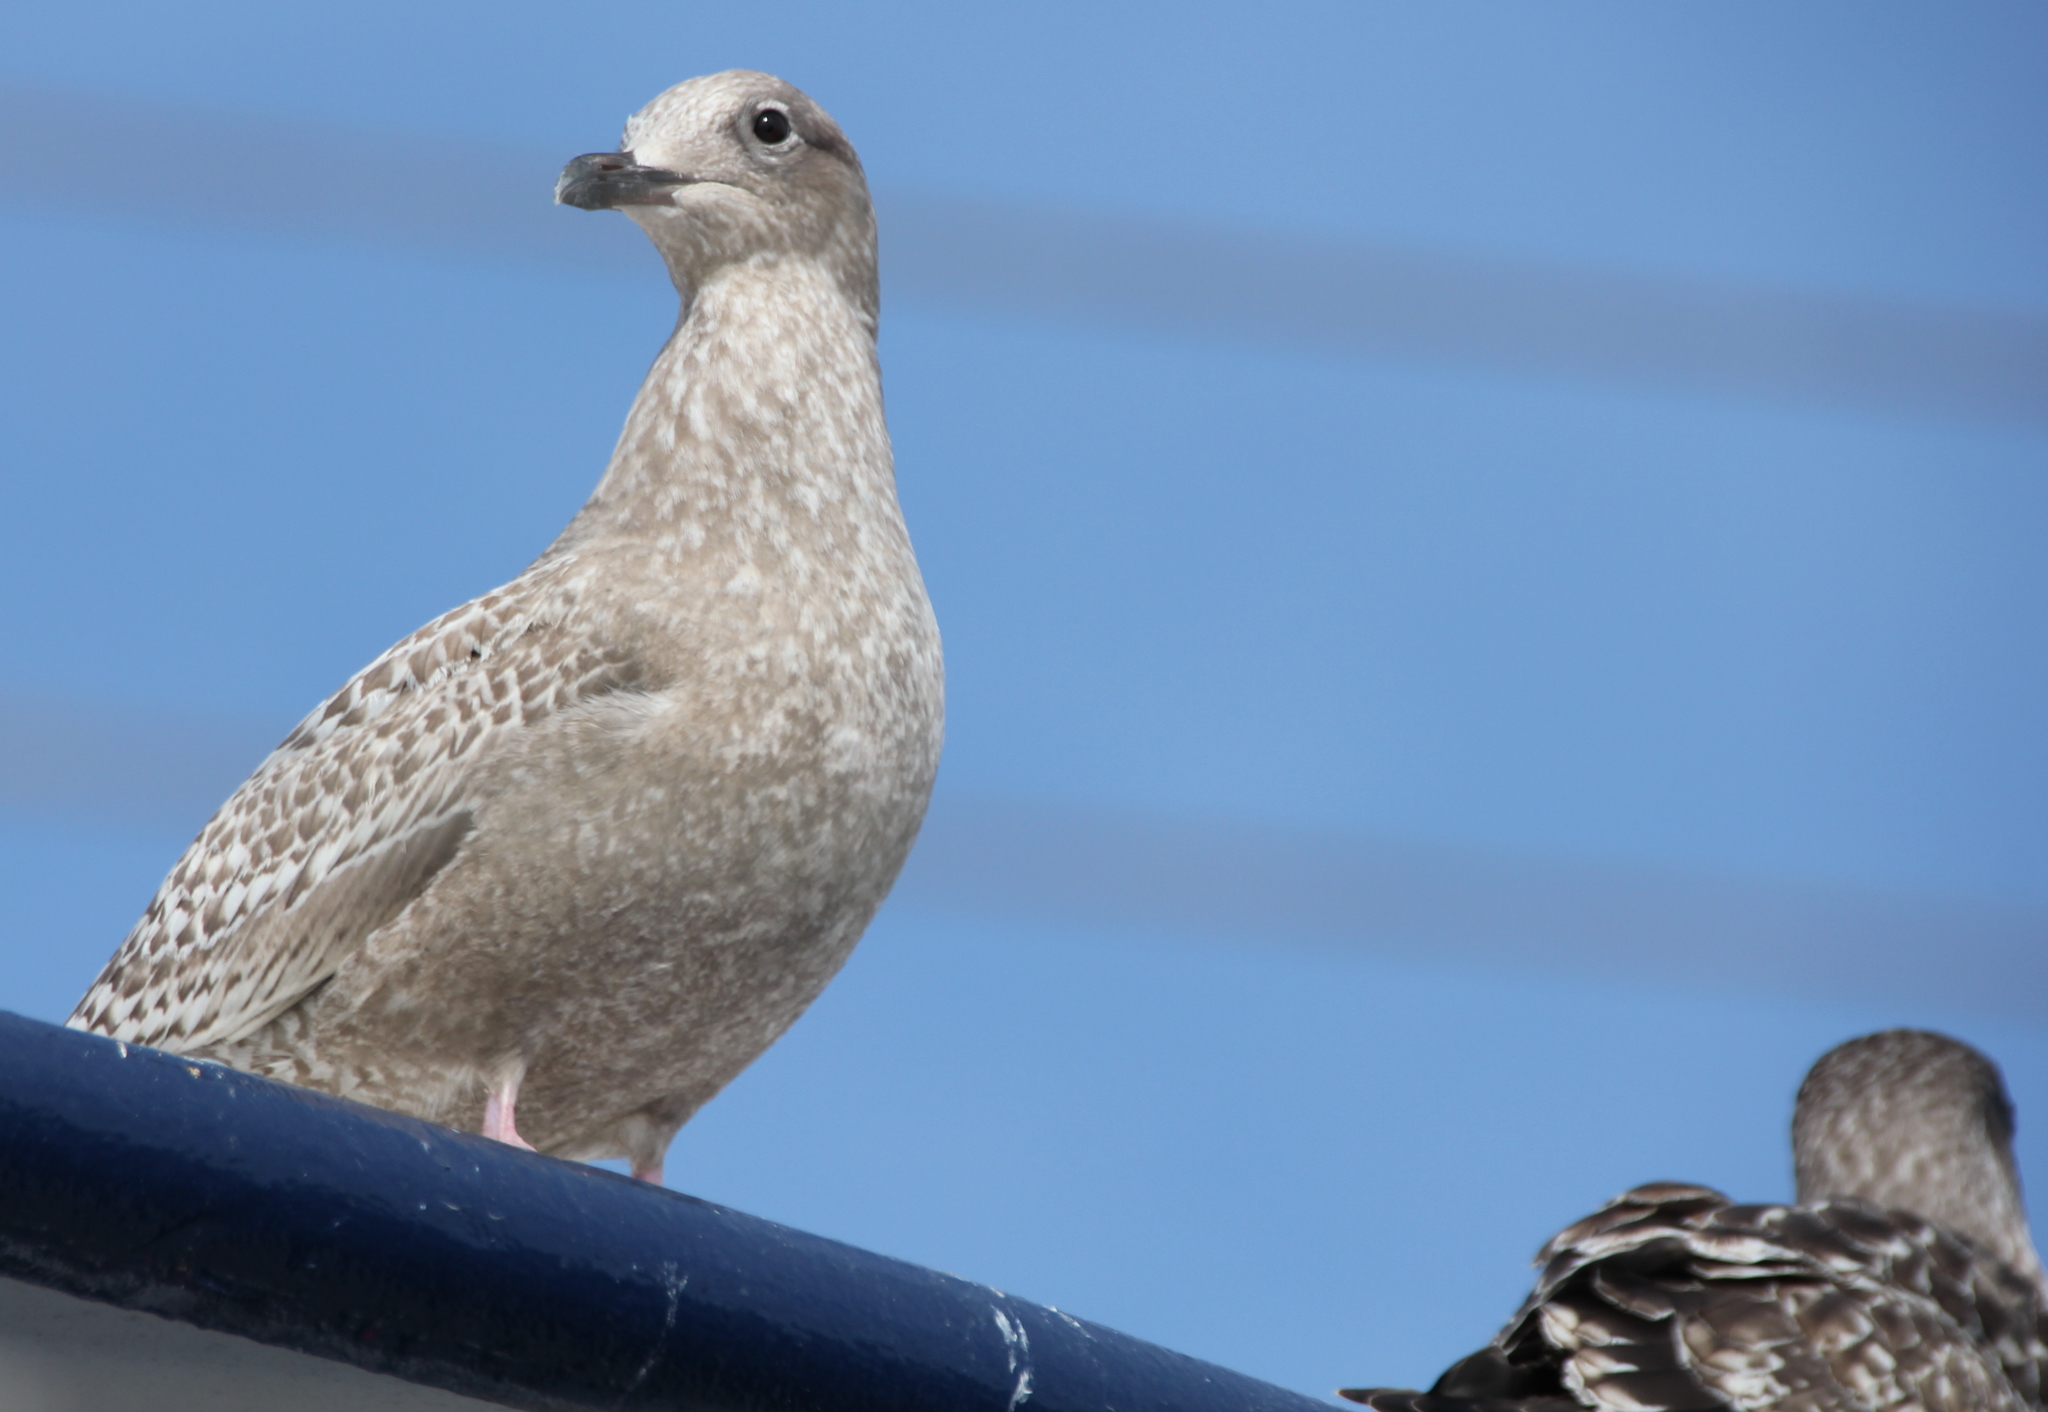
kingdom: Animalia
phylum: Chordata
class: Aves
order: Charadriiformes
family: Laridae
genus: Larus
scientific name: Larus glaucoides
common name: Iceland gull
